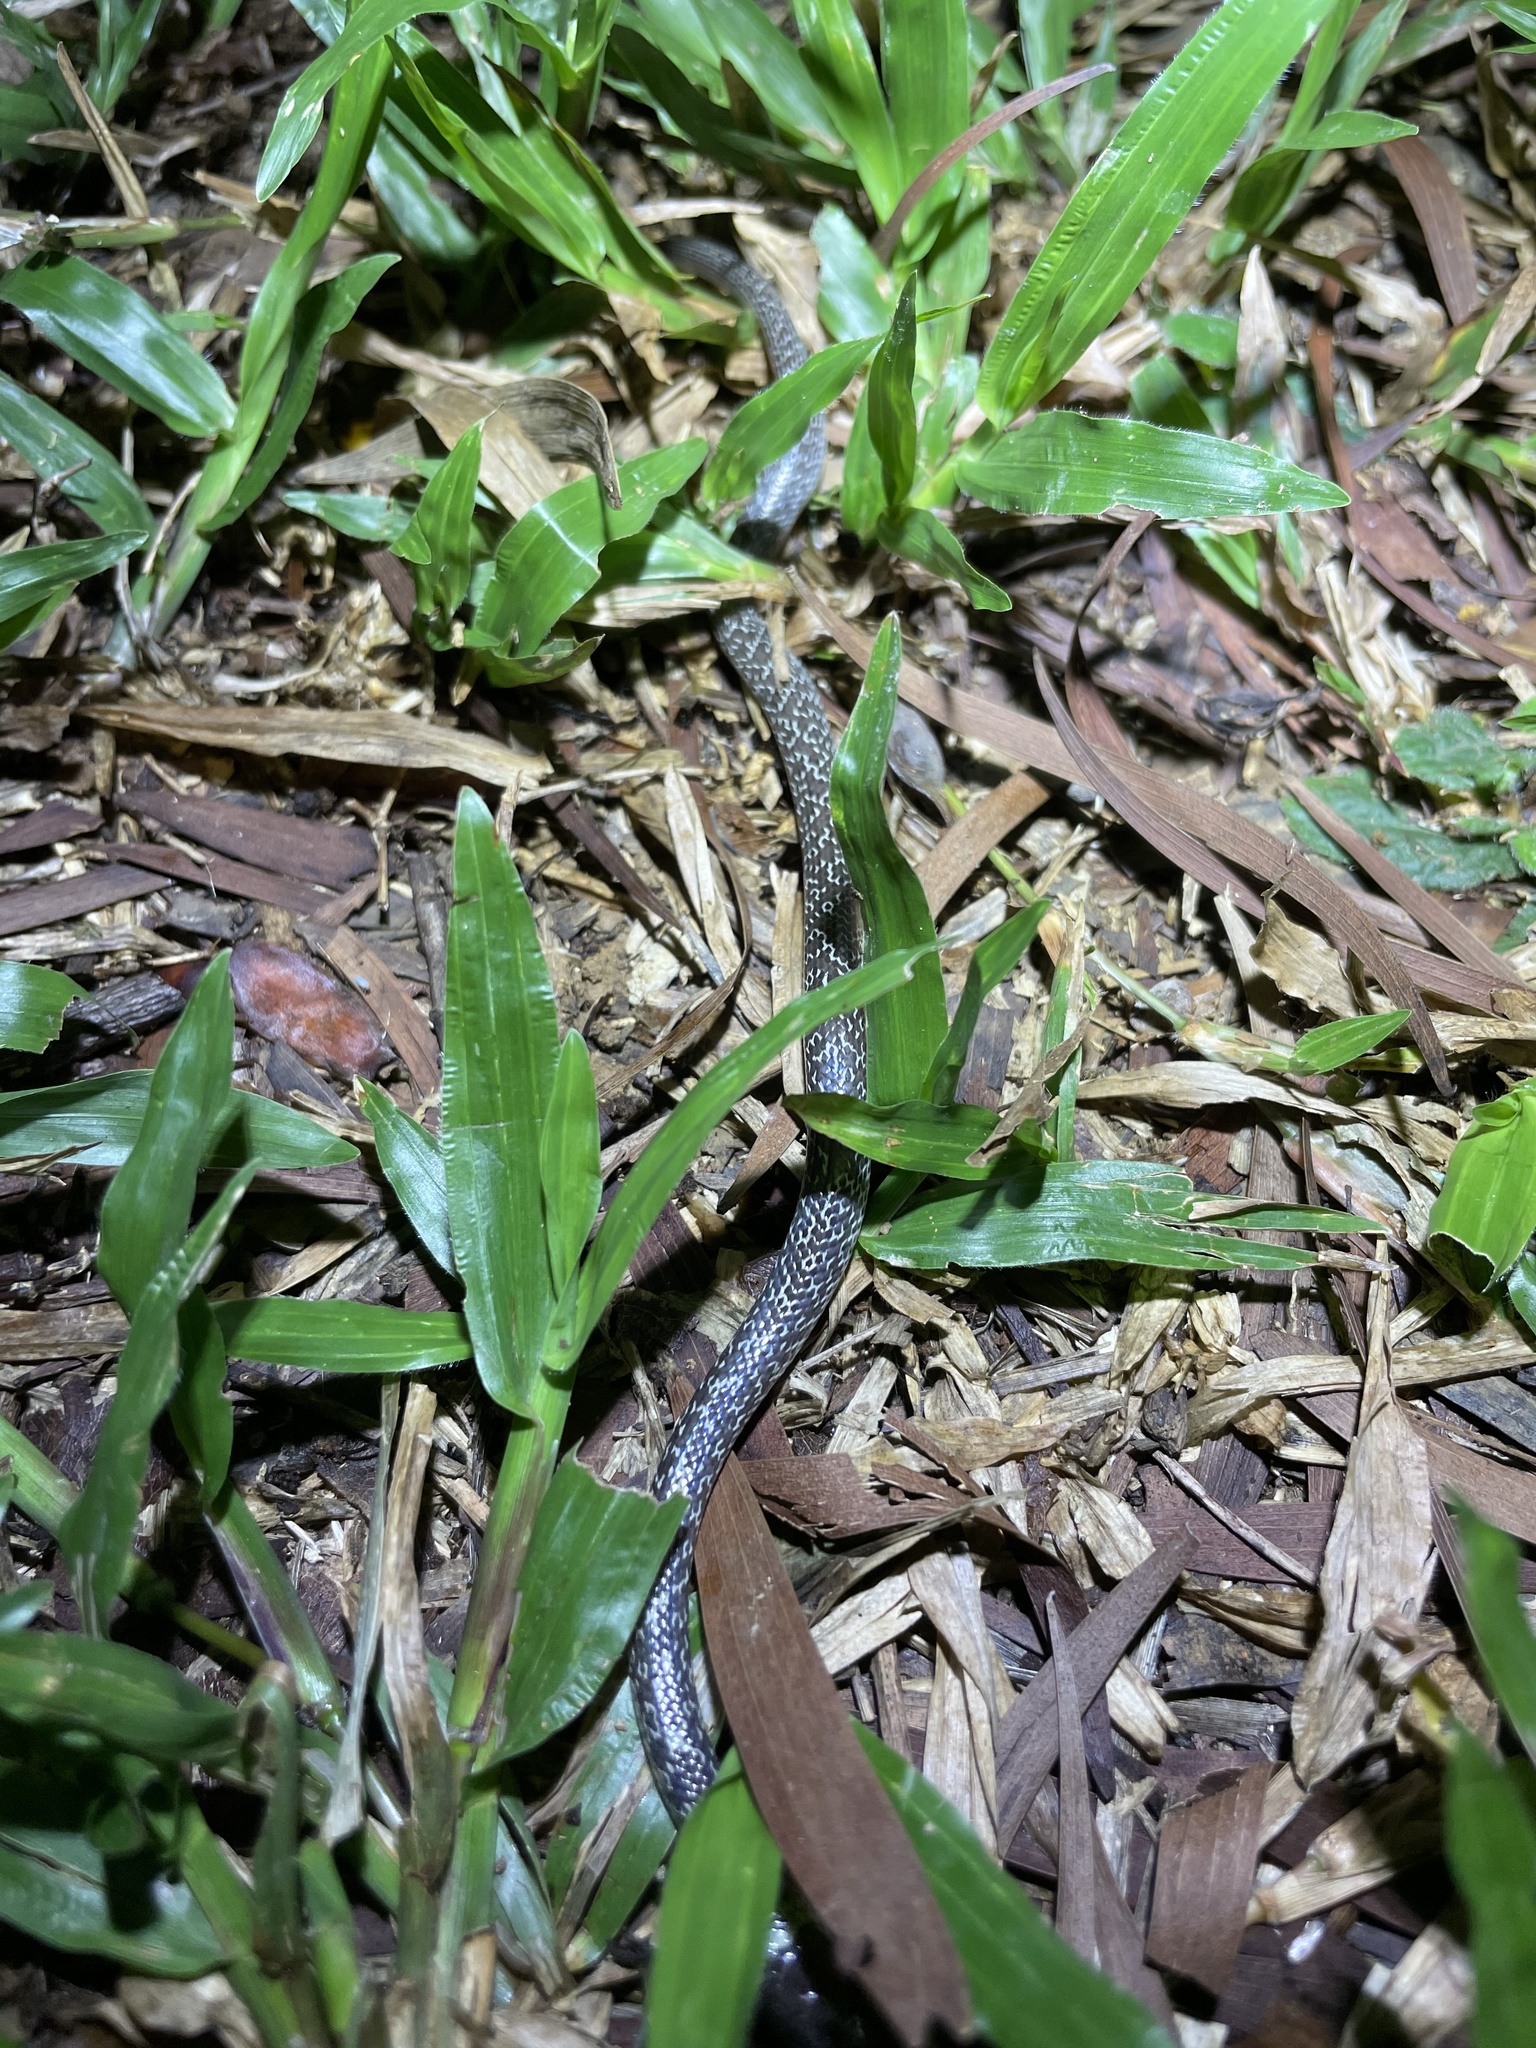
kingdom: Animalia
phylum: Chordata
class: Squamata
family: Colubridae
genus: Lycodon
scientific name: Lycodon capucinus
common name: Common wold snake/house snake
